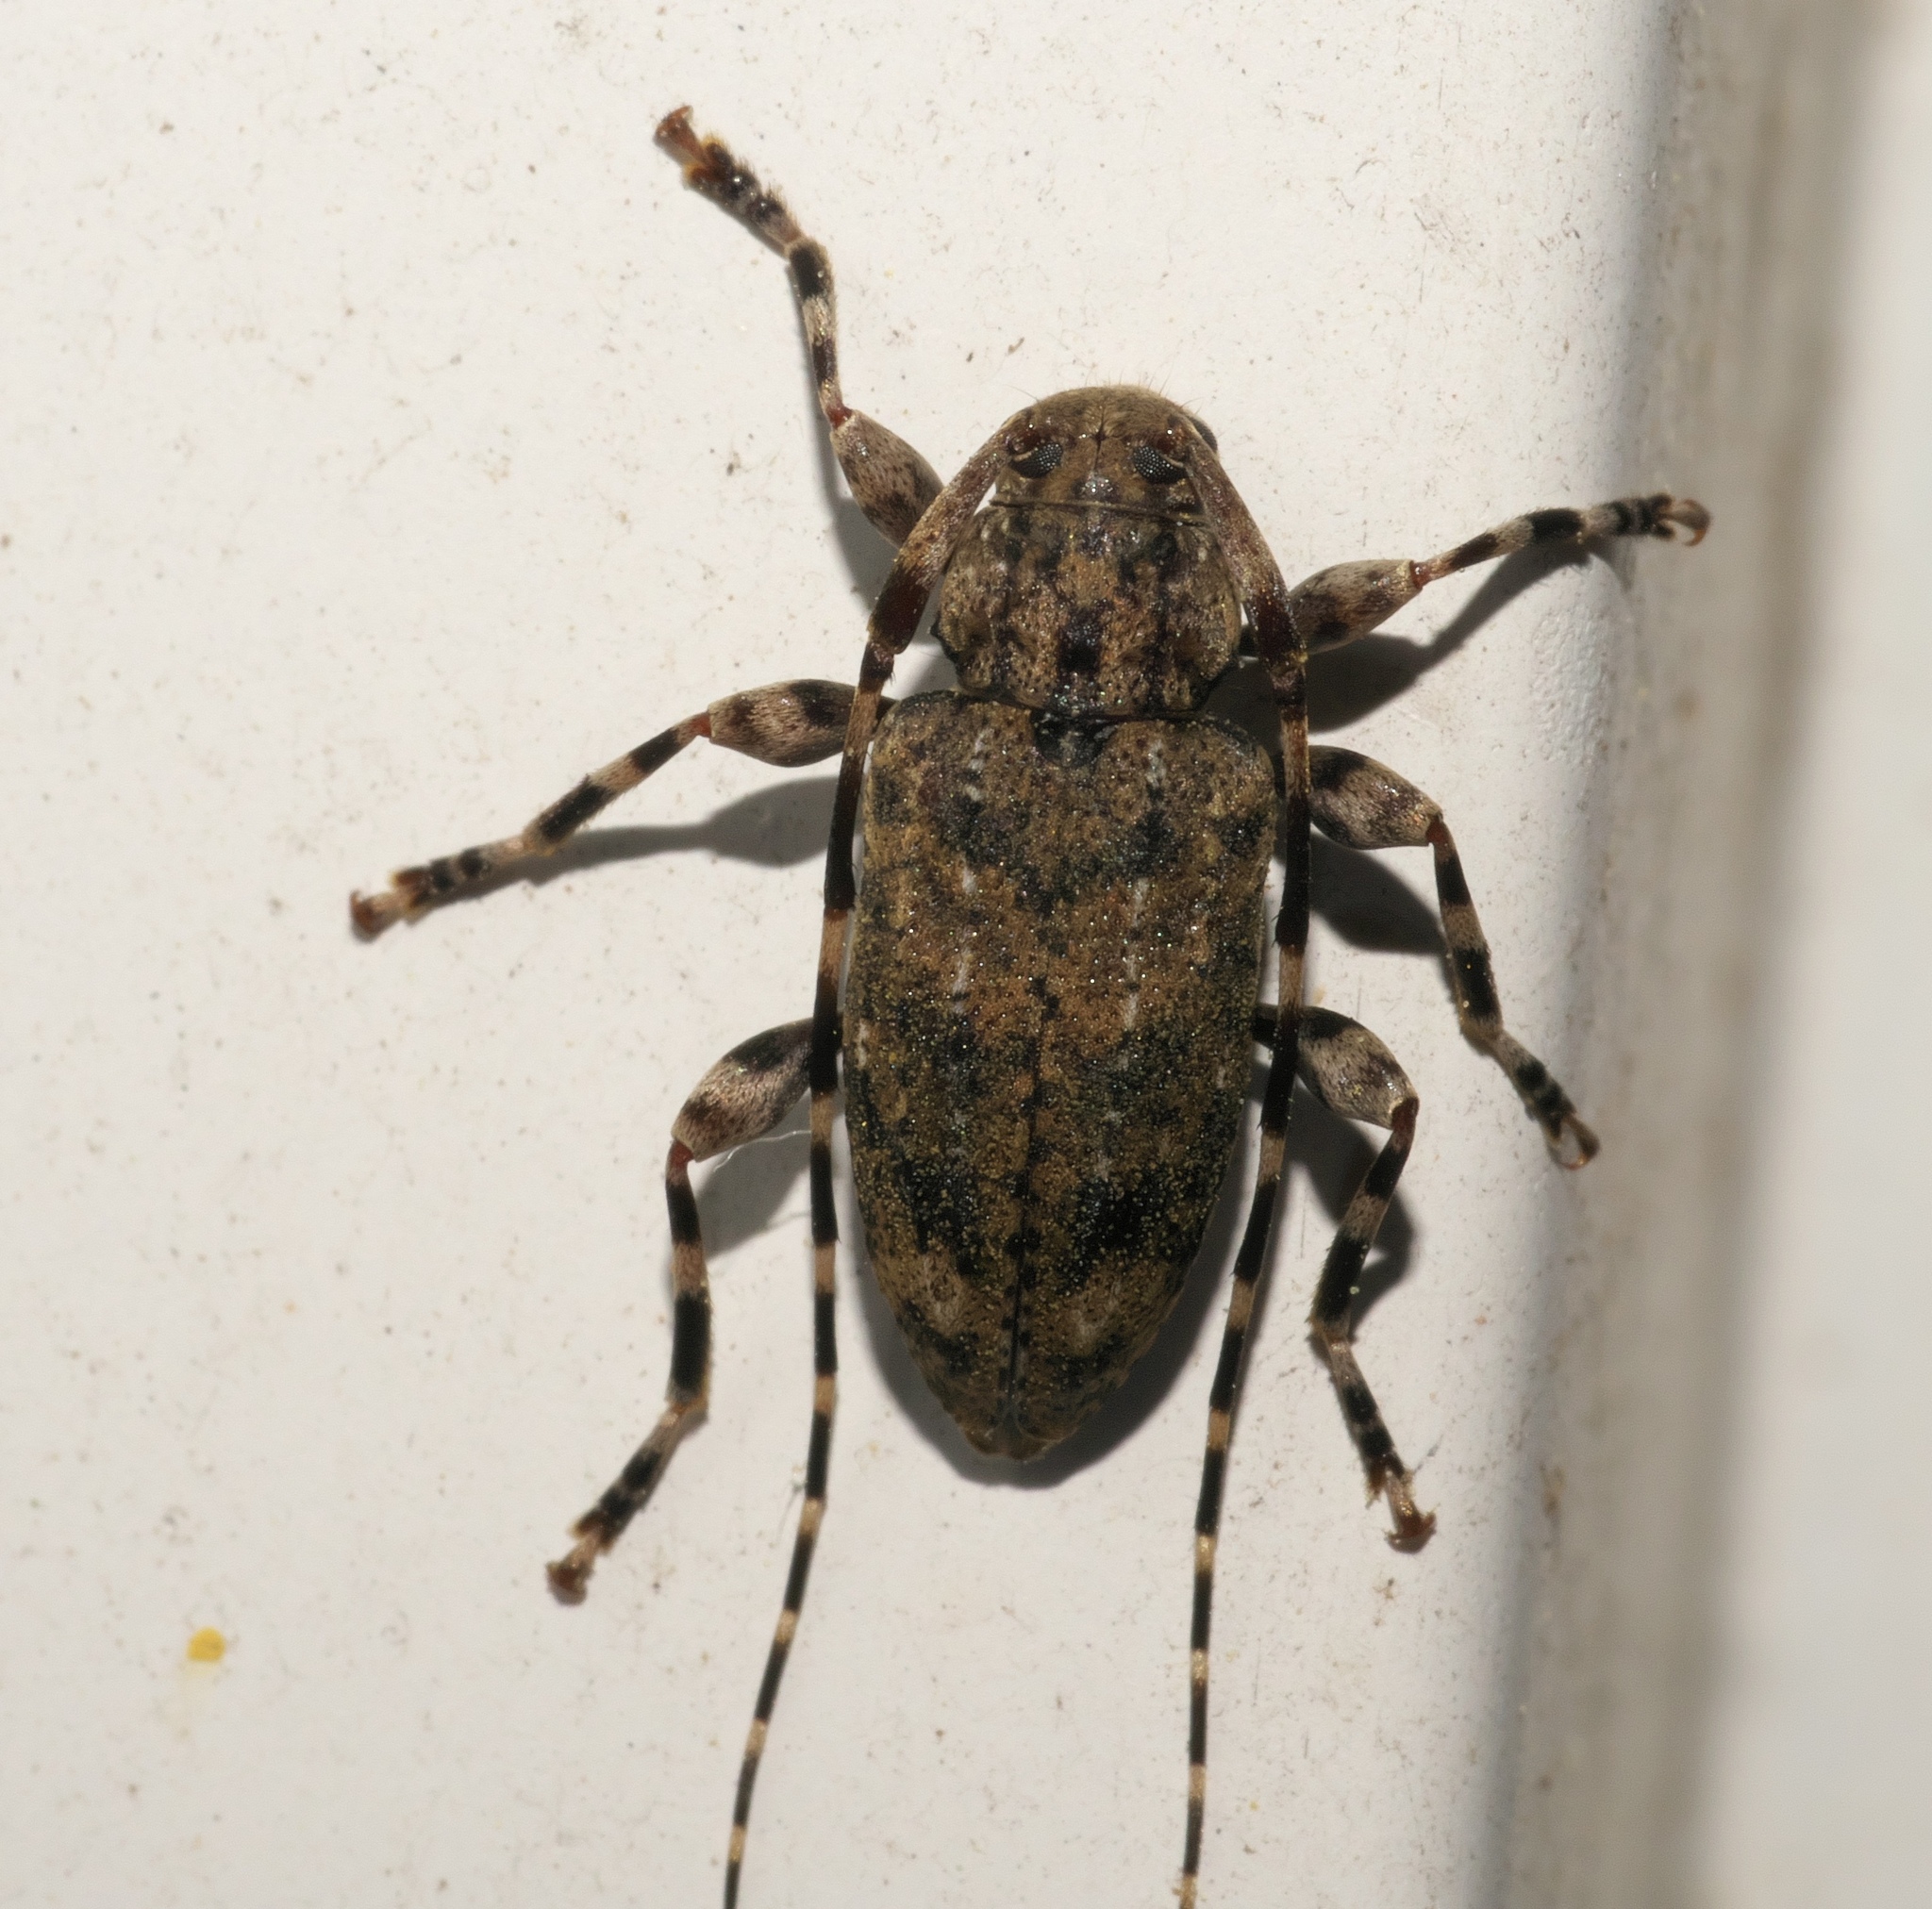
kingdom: Animalia
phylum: Arthropoda
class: Insecta
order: Coleoptera
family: Cerambycidae
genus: Astyleiopus
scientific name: Astyleiopus variegatus
